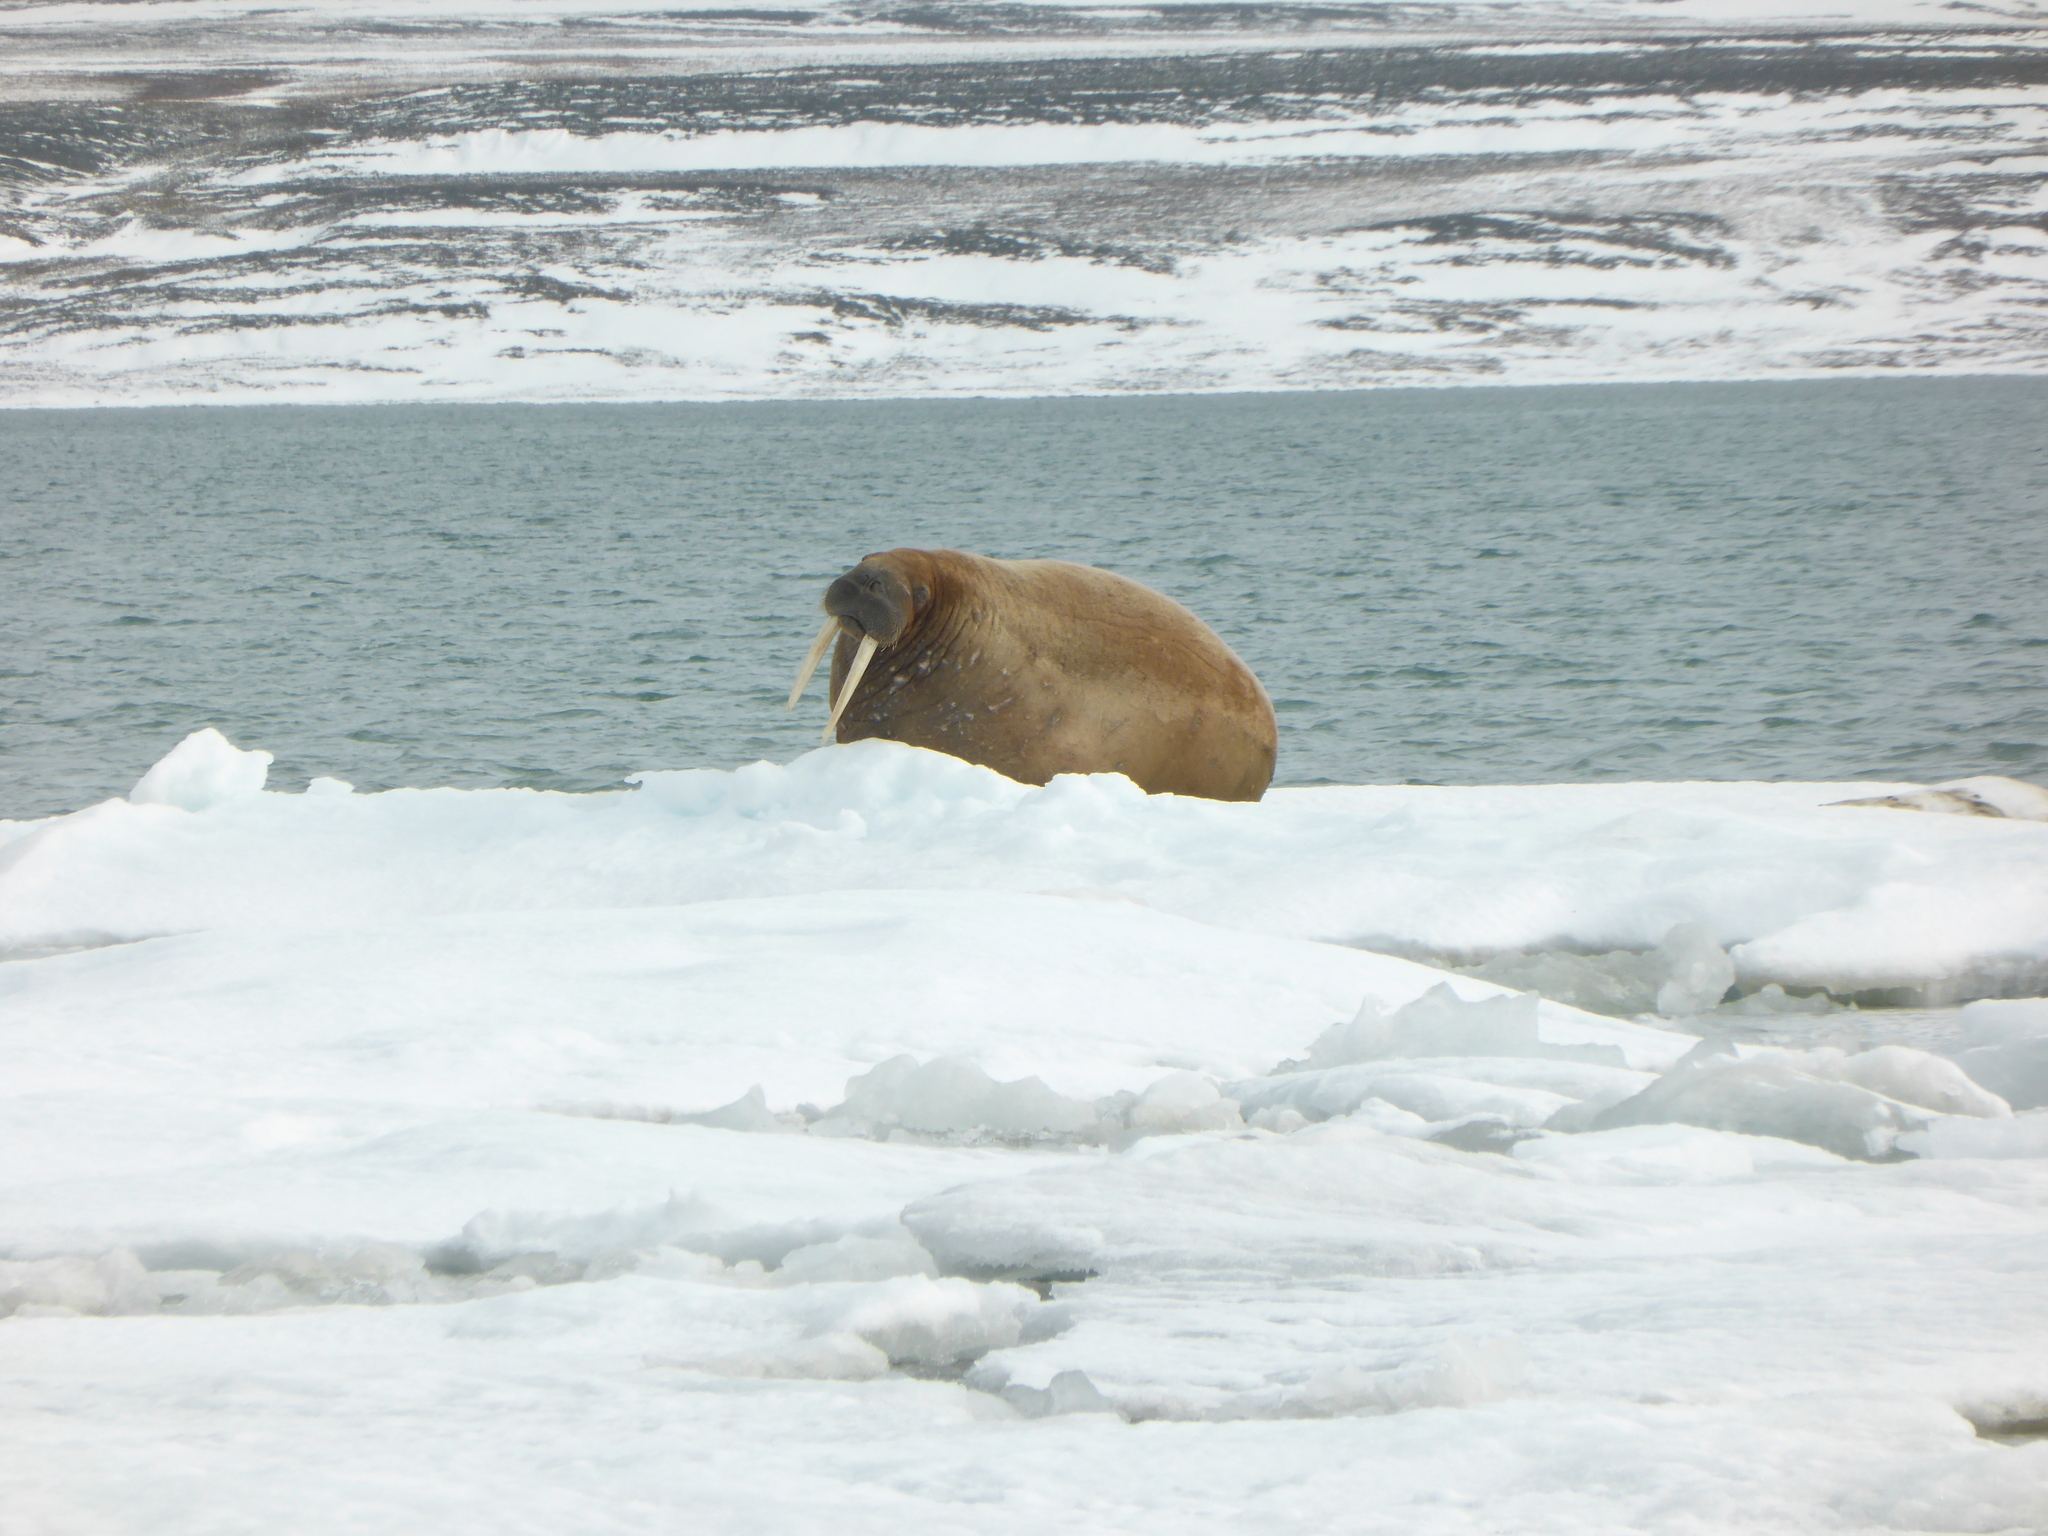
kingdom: Animalia
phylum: Chordata
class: Mammalia
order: Carnivora
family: Odobenidae
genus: Odobenus
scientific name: Odobenus rosmarus
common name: Walrus
